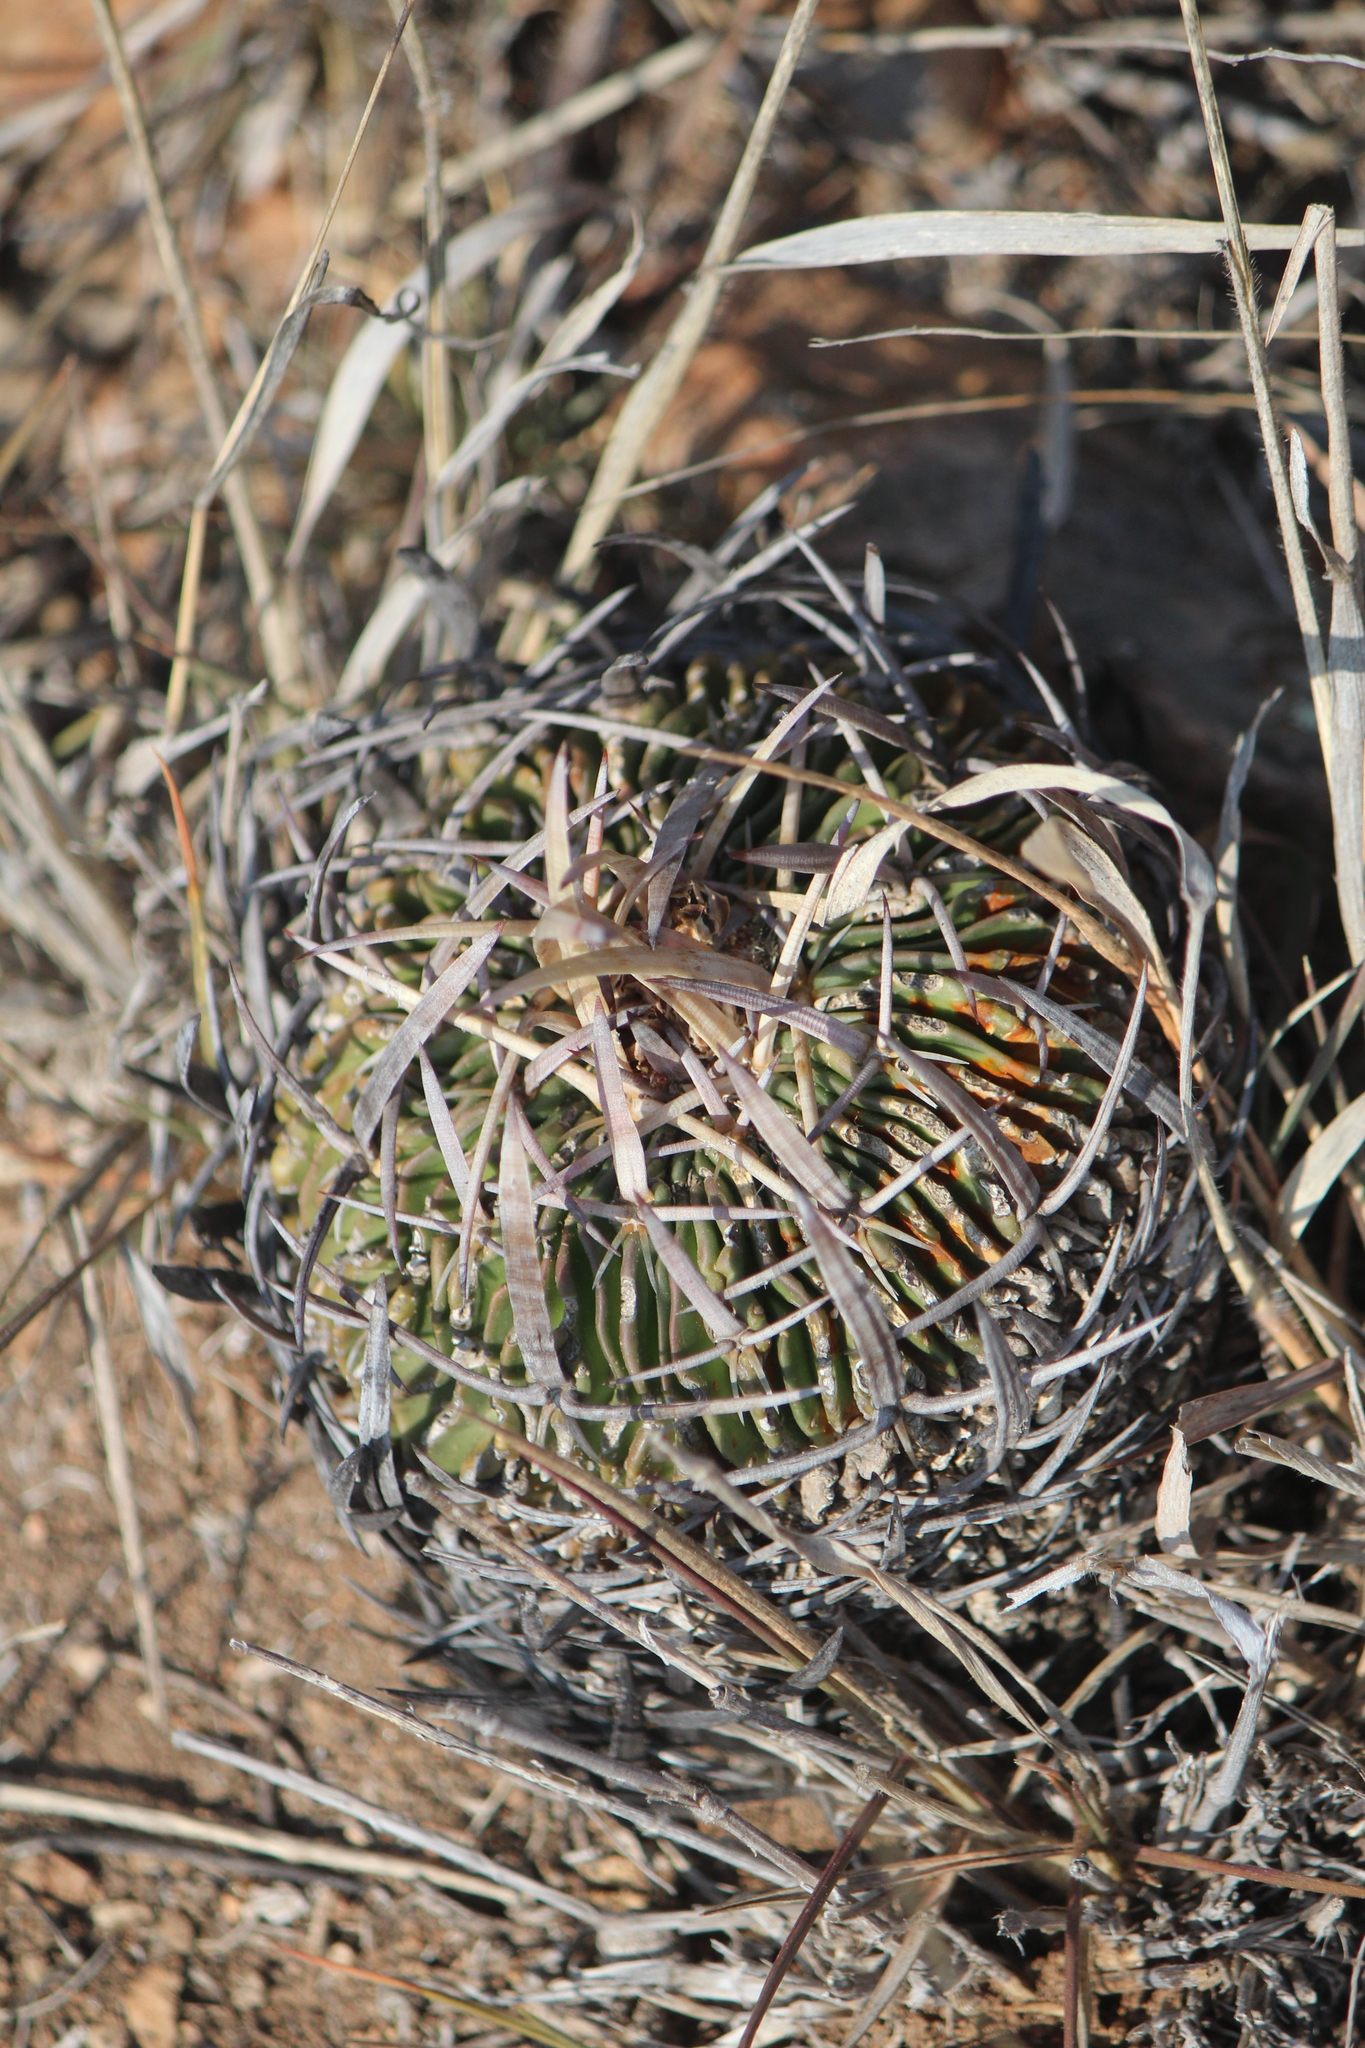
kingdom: Plantae
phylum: Tracheophyta
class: Magnoliopsida
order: Caryophyllales
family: Cactaceae
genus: Stenocactus
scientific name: Stenocactus obvallatus
